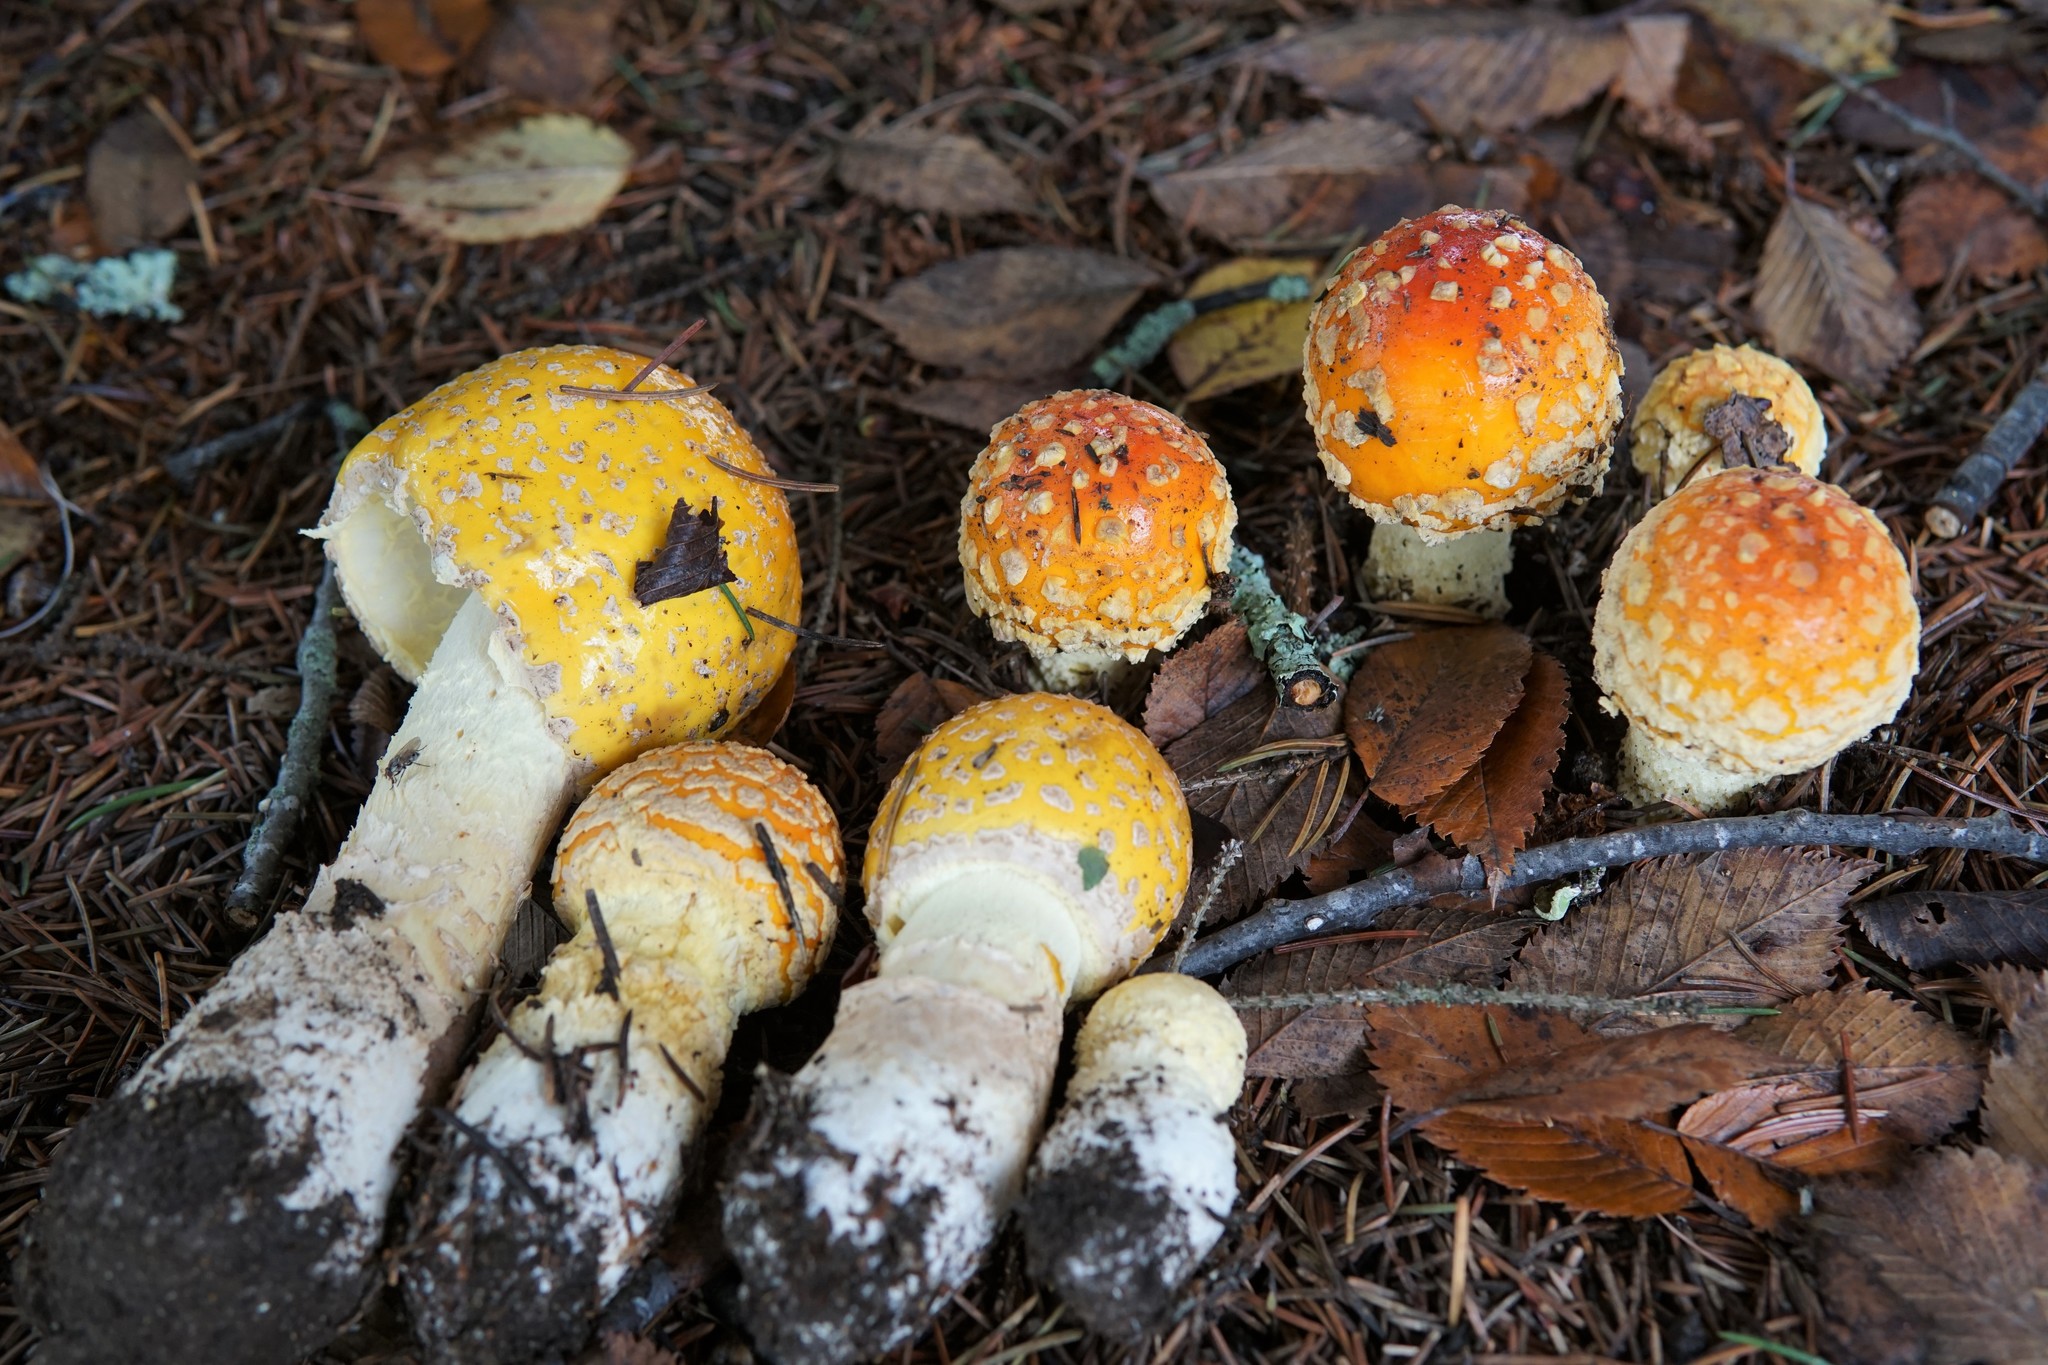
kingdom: Fungi
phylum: Basidiomycota
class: Agaricomycetes
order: Agaricales
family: Amanitaceae
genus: Amanita
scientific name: Amanita muscaria
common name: Fly agaric
